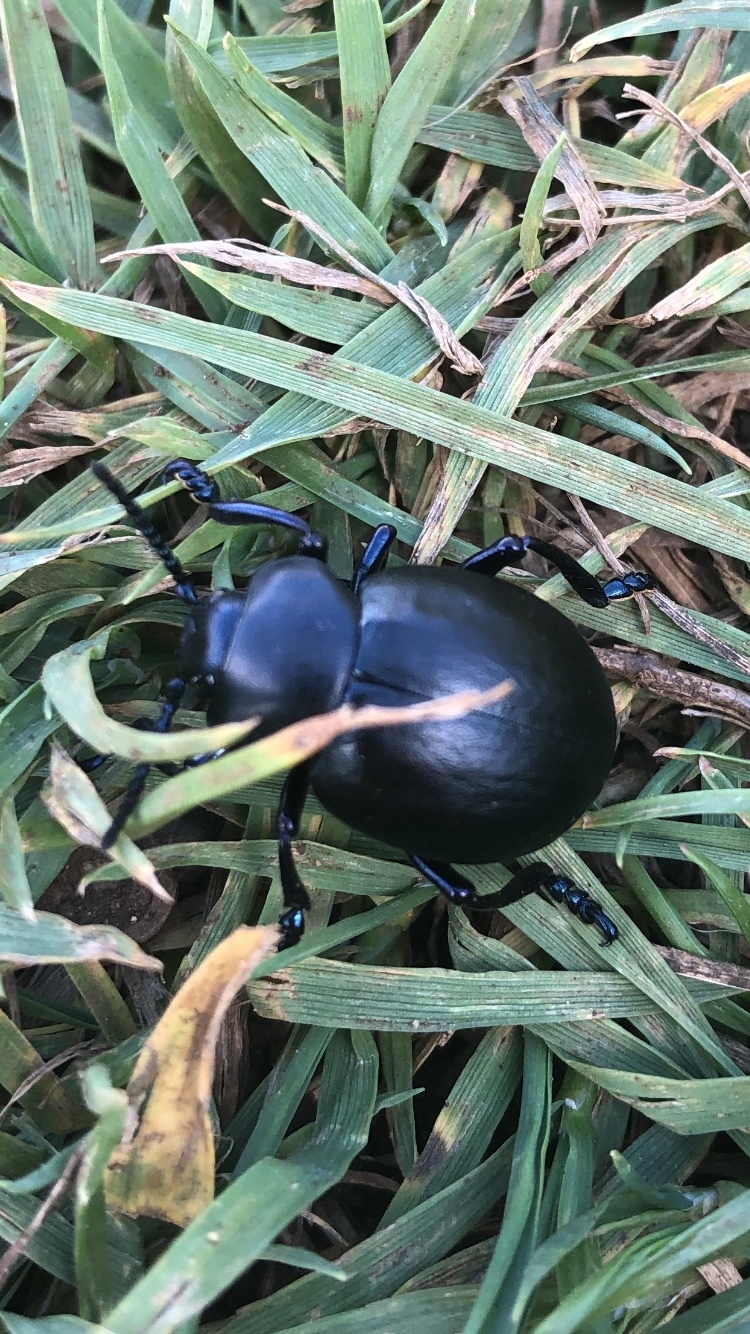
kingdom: Animalia
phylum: Arthropoda
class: Insecta
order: Coleoptera
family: Chrysomelidae
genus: Timarcha
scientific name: Timarcha tenebricosa
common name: Bloody-nosed beetle
